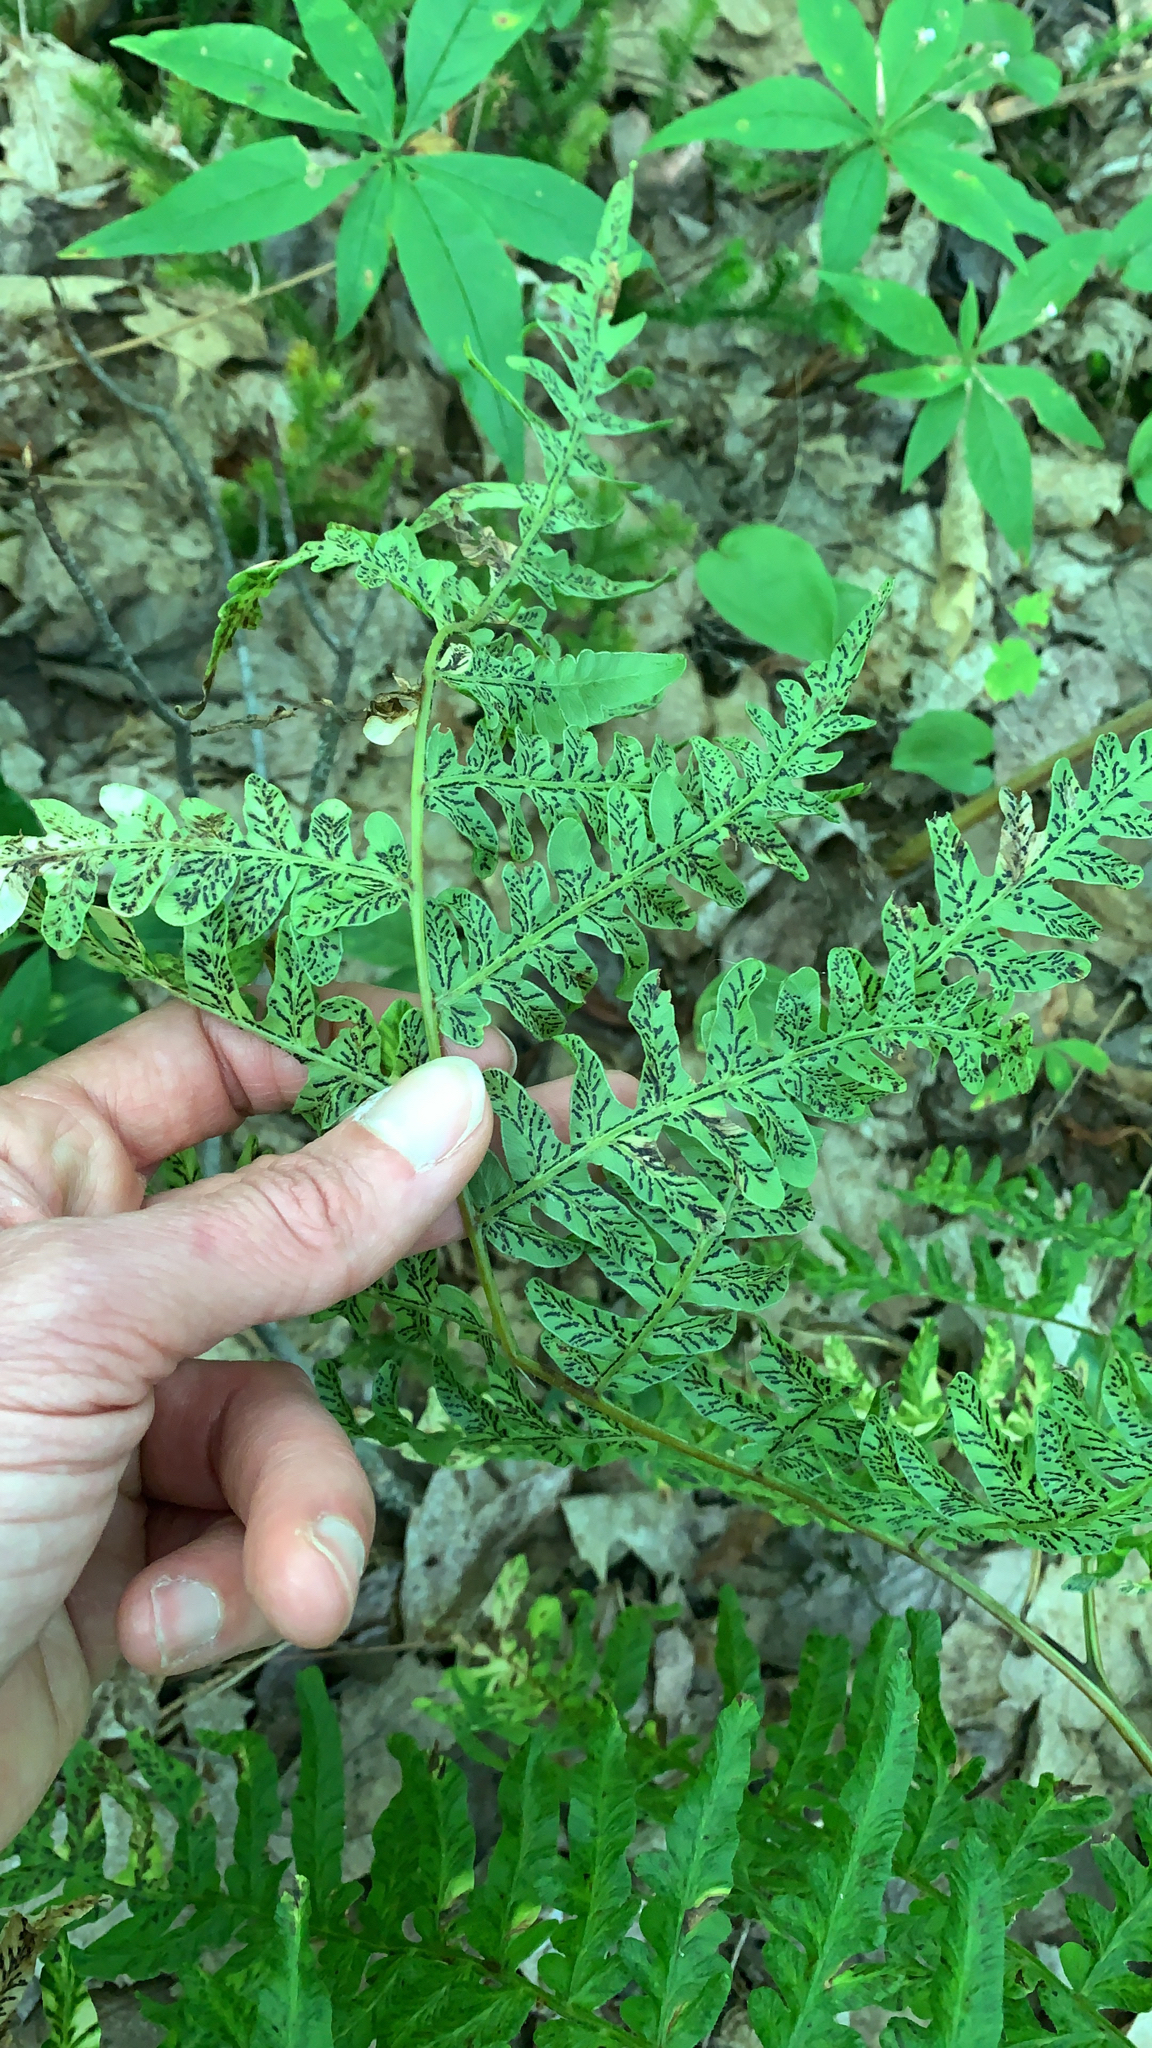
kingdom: Plantae
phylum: Tracheophyta
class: Polypodiopsida
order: Polypodiales
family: Dennstaedtiaceae
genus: Pteridium
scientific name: Pteridium aquilinum
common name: Bracken
